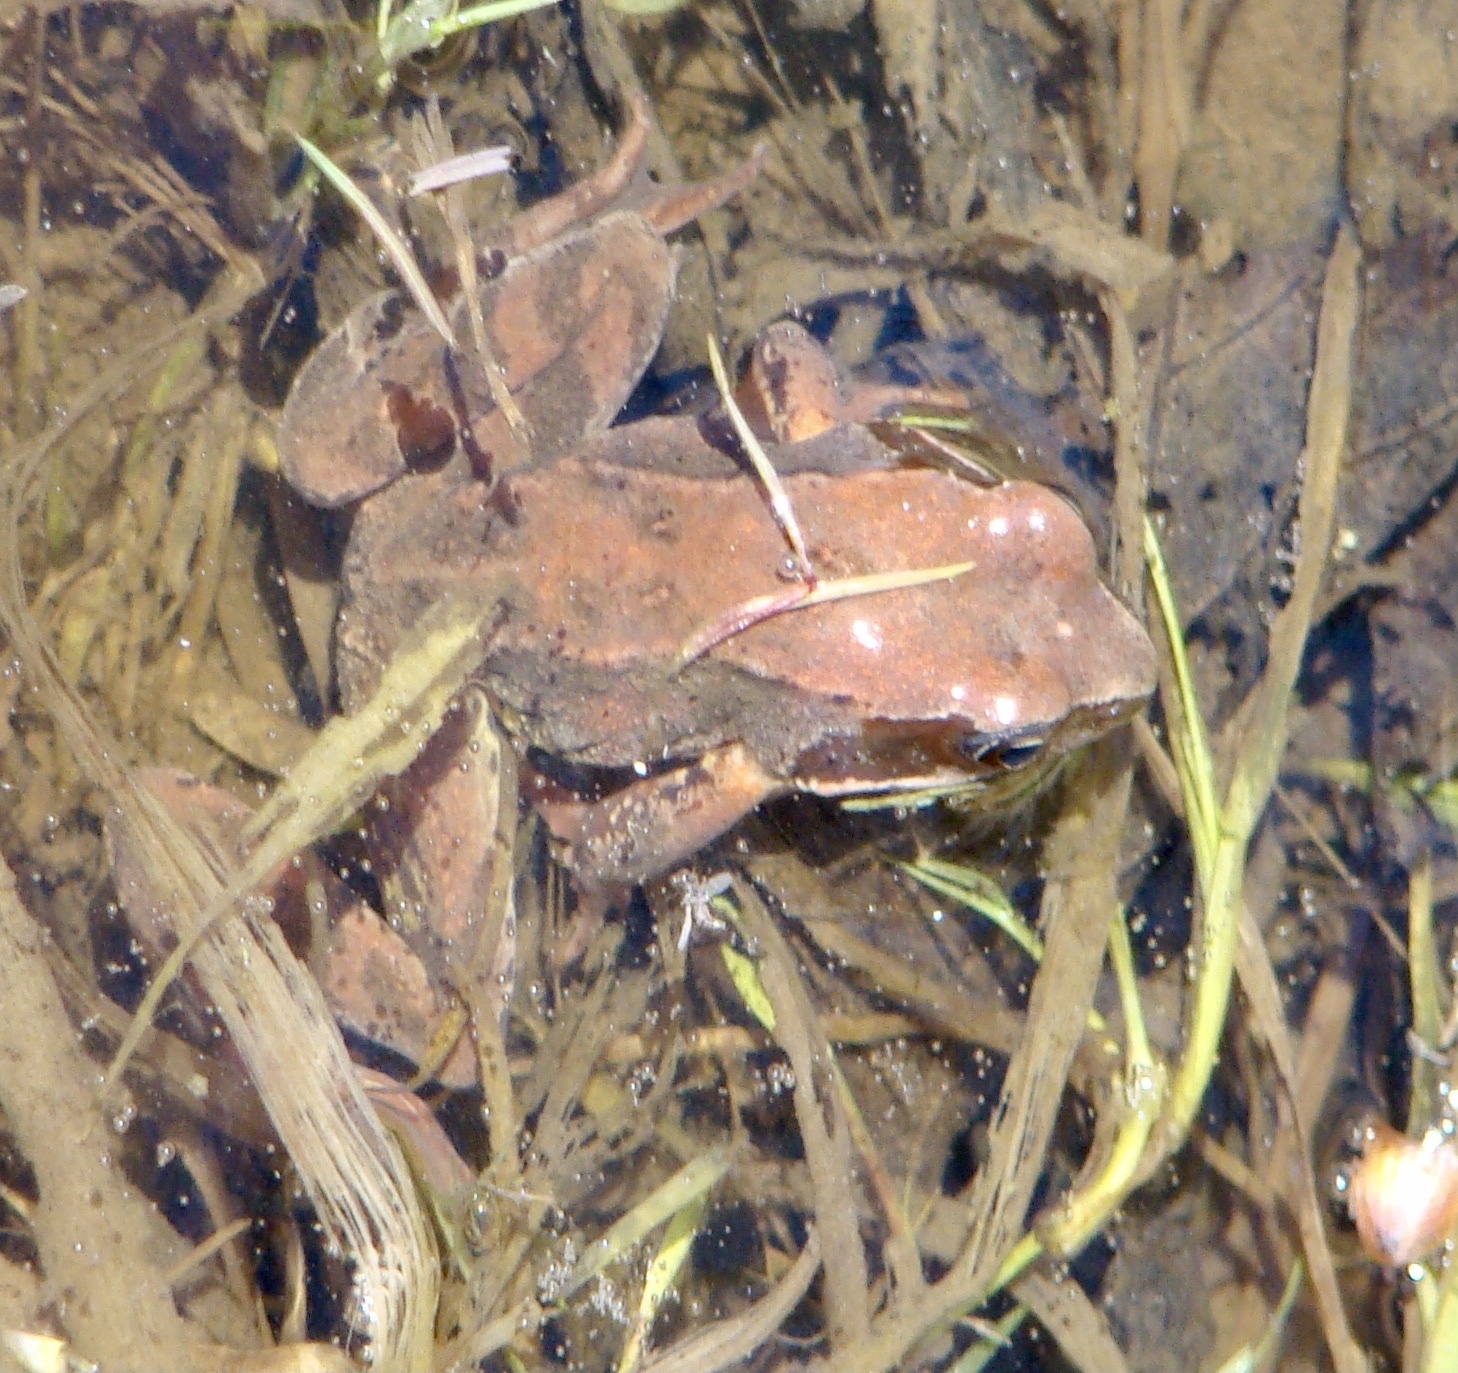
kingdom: Animalia
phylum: Chordata
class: Amphibia
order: Anura
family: Ranidae
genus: Rana
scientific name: Rana temporaria
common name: Common frog
